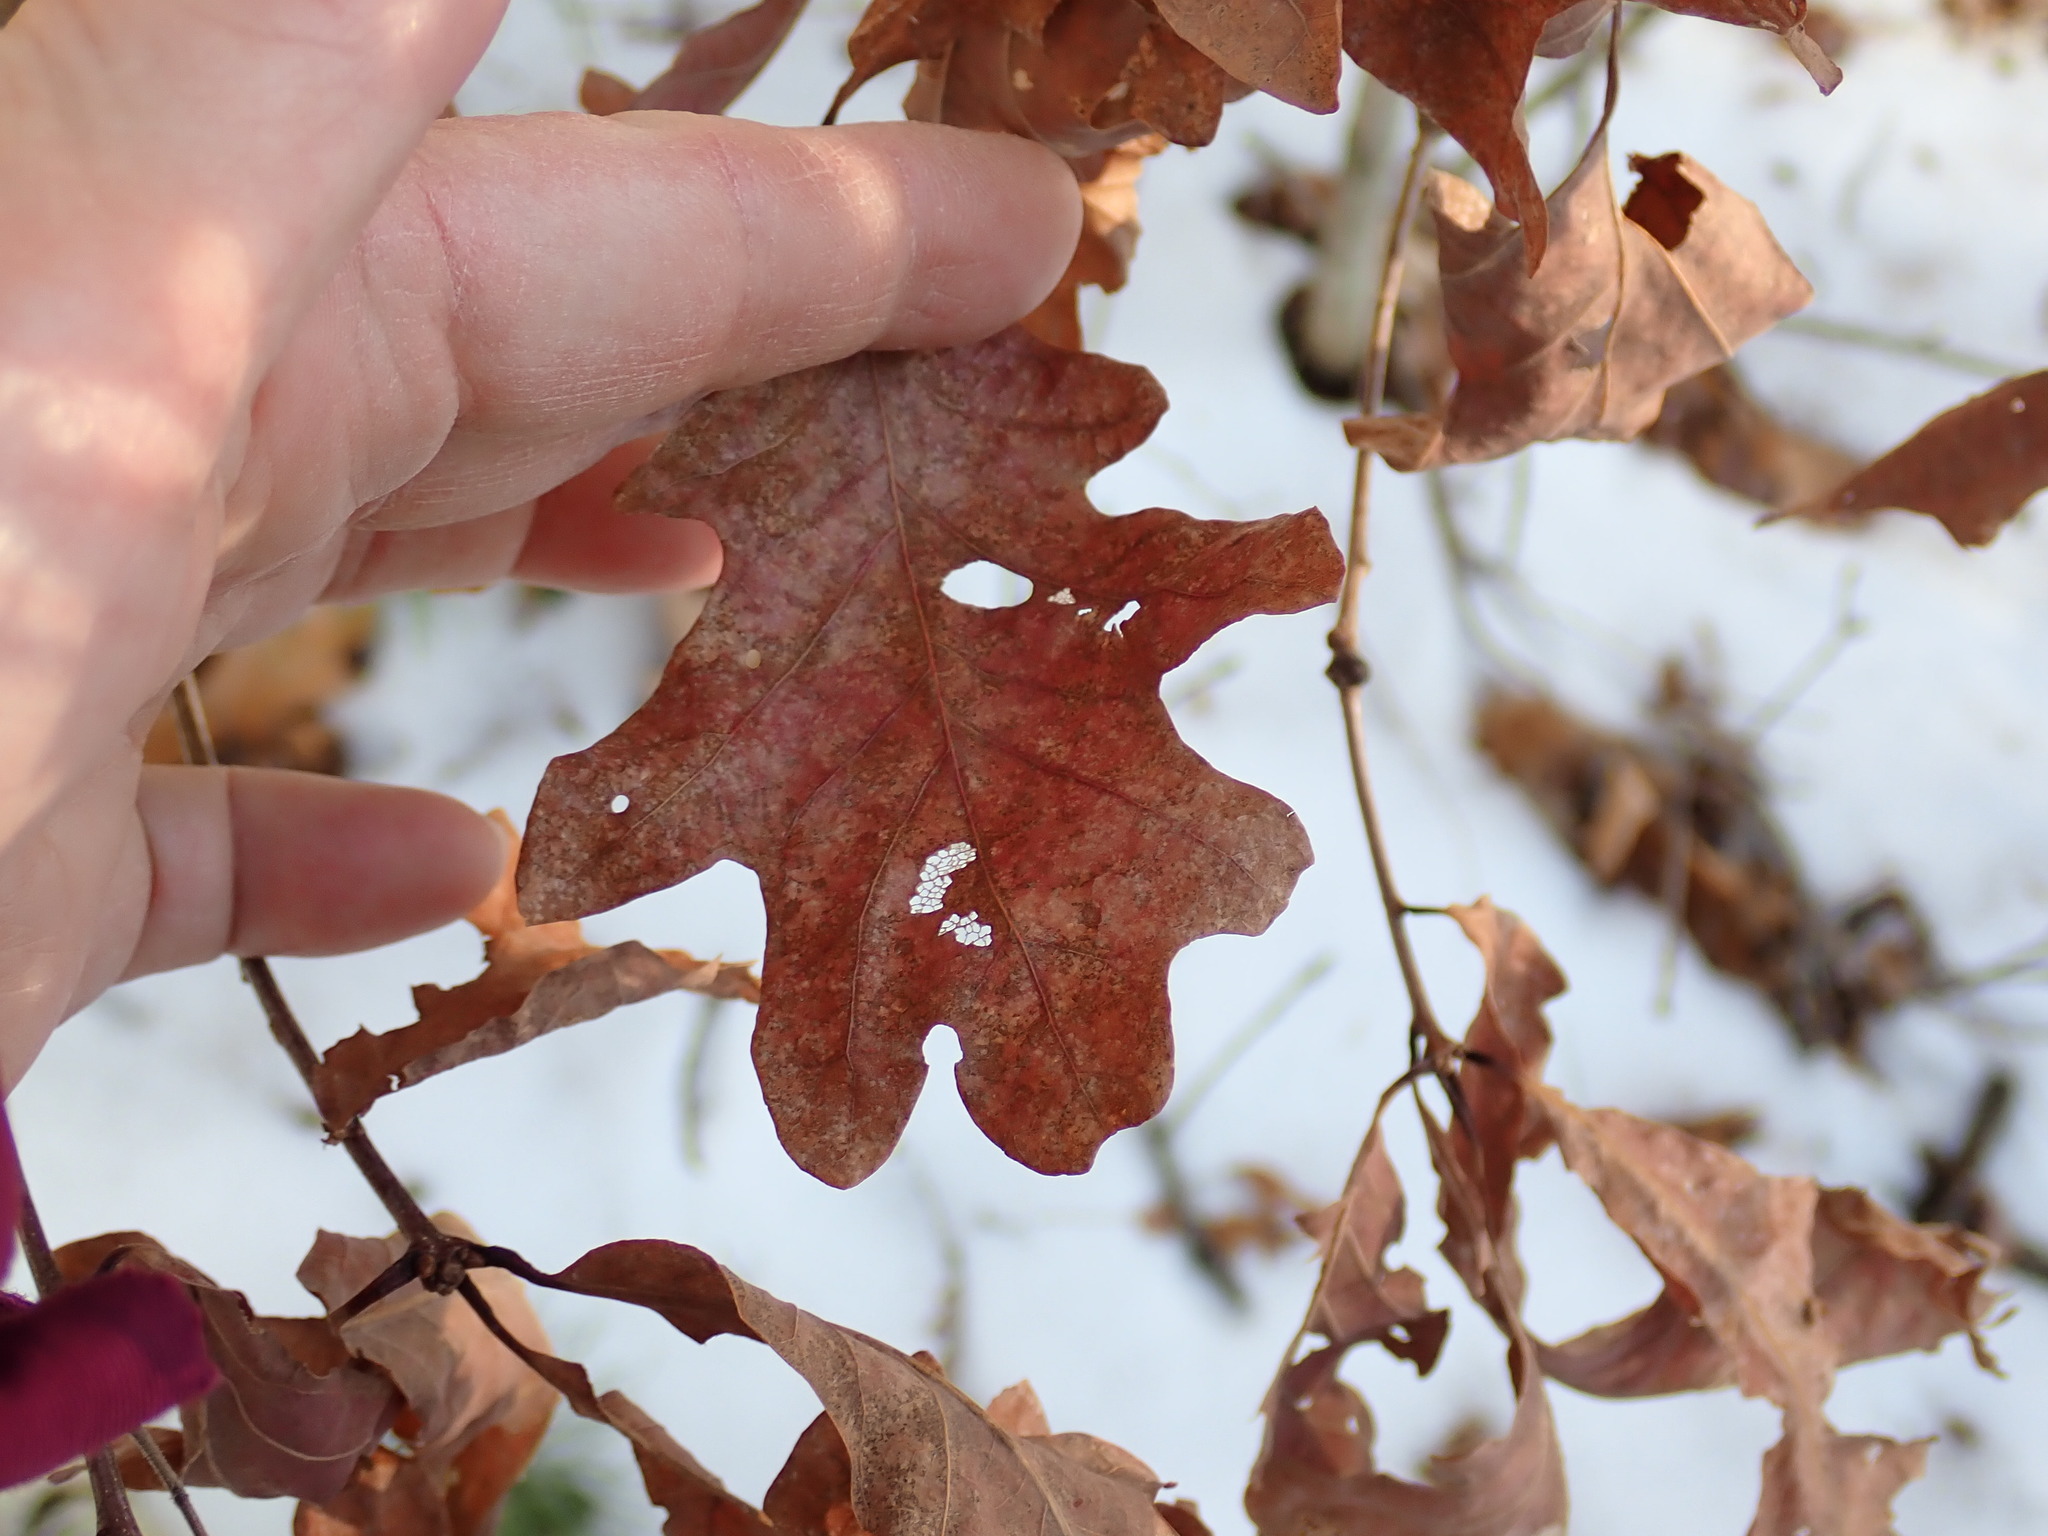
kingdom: Plantae
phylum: Tracheophyta
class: Magnoliopsida
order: Fagales
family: Fagaceae
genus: Quercus
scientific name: Quercus alba
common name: White oak
